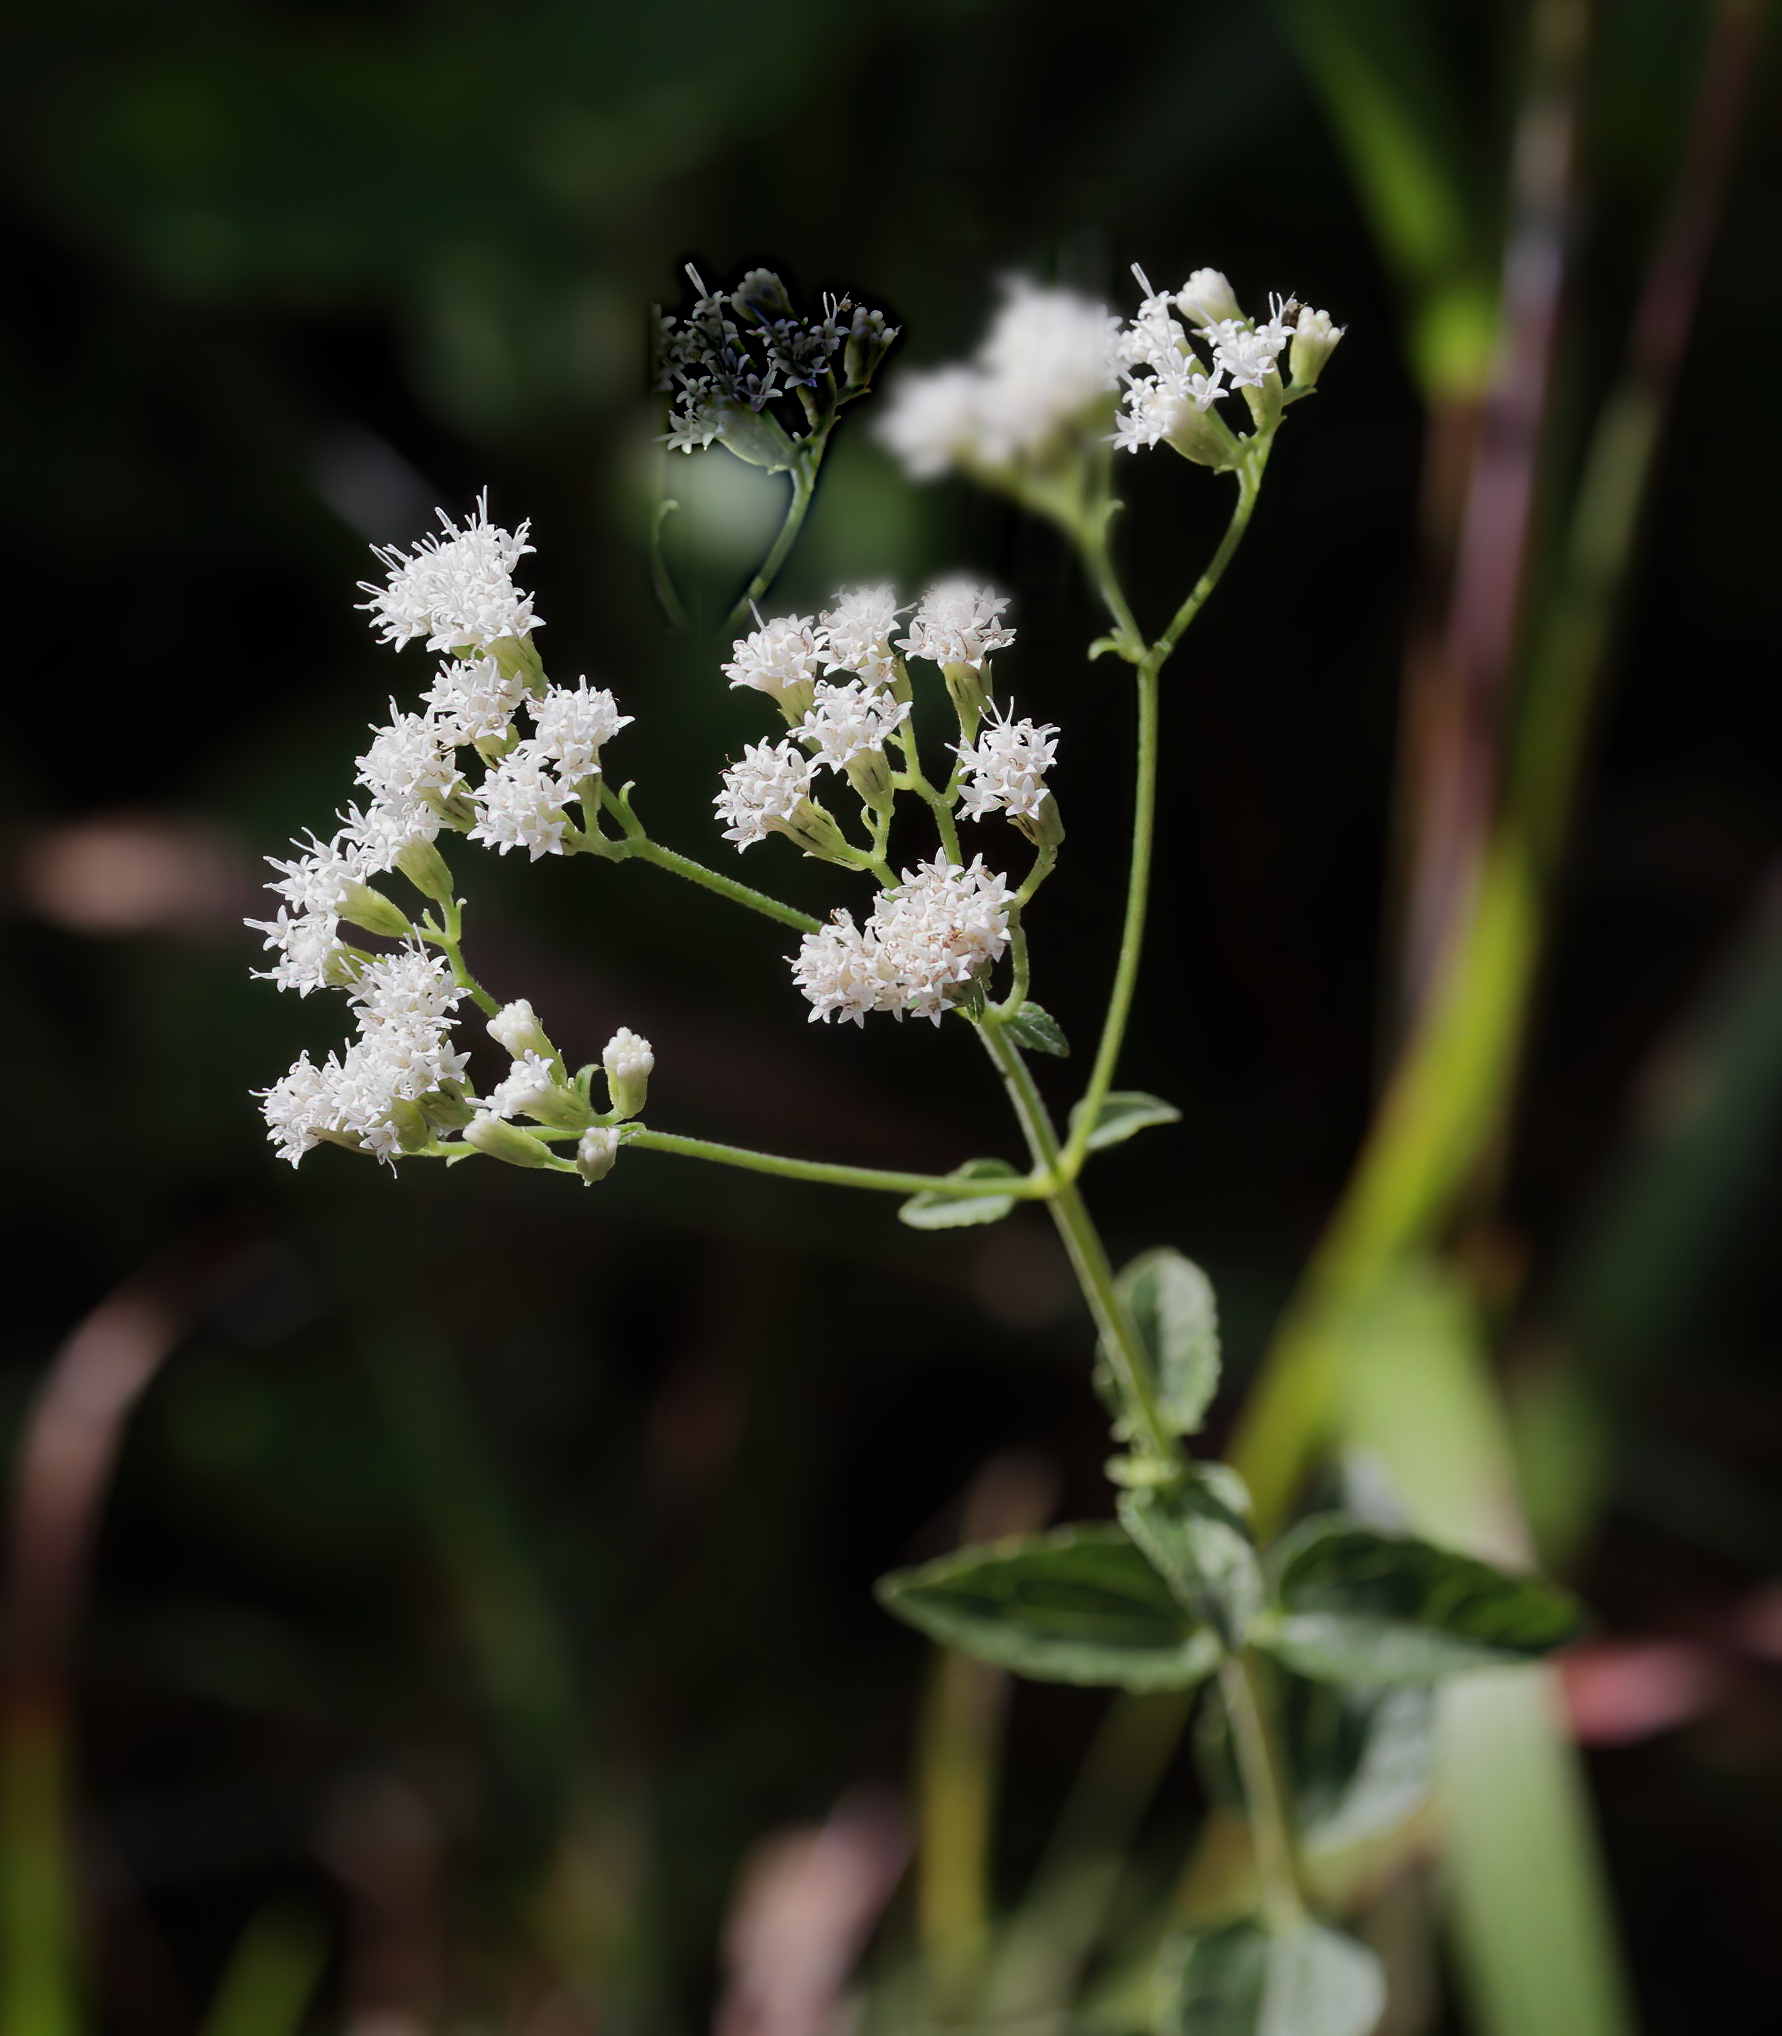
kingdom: Plantae
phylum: Tracheophyta
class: Magnoliopsida
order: Asterales
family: Asteraceae
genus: Ageratina
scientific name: Ageratina aromatica
